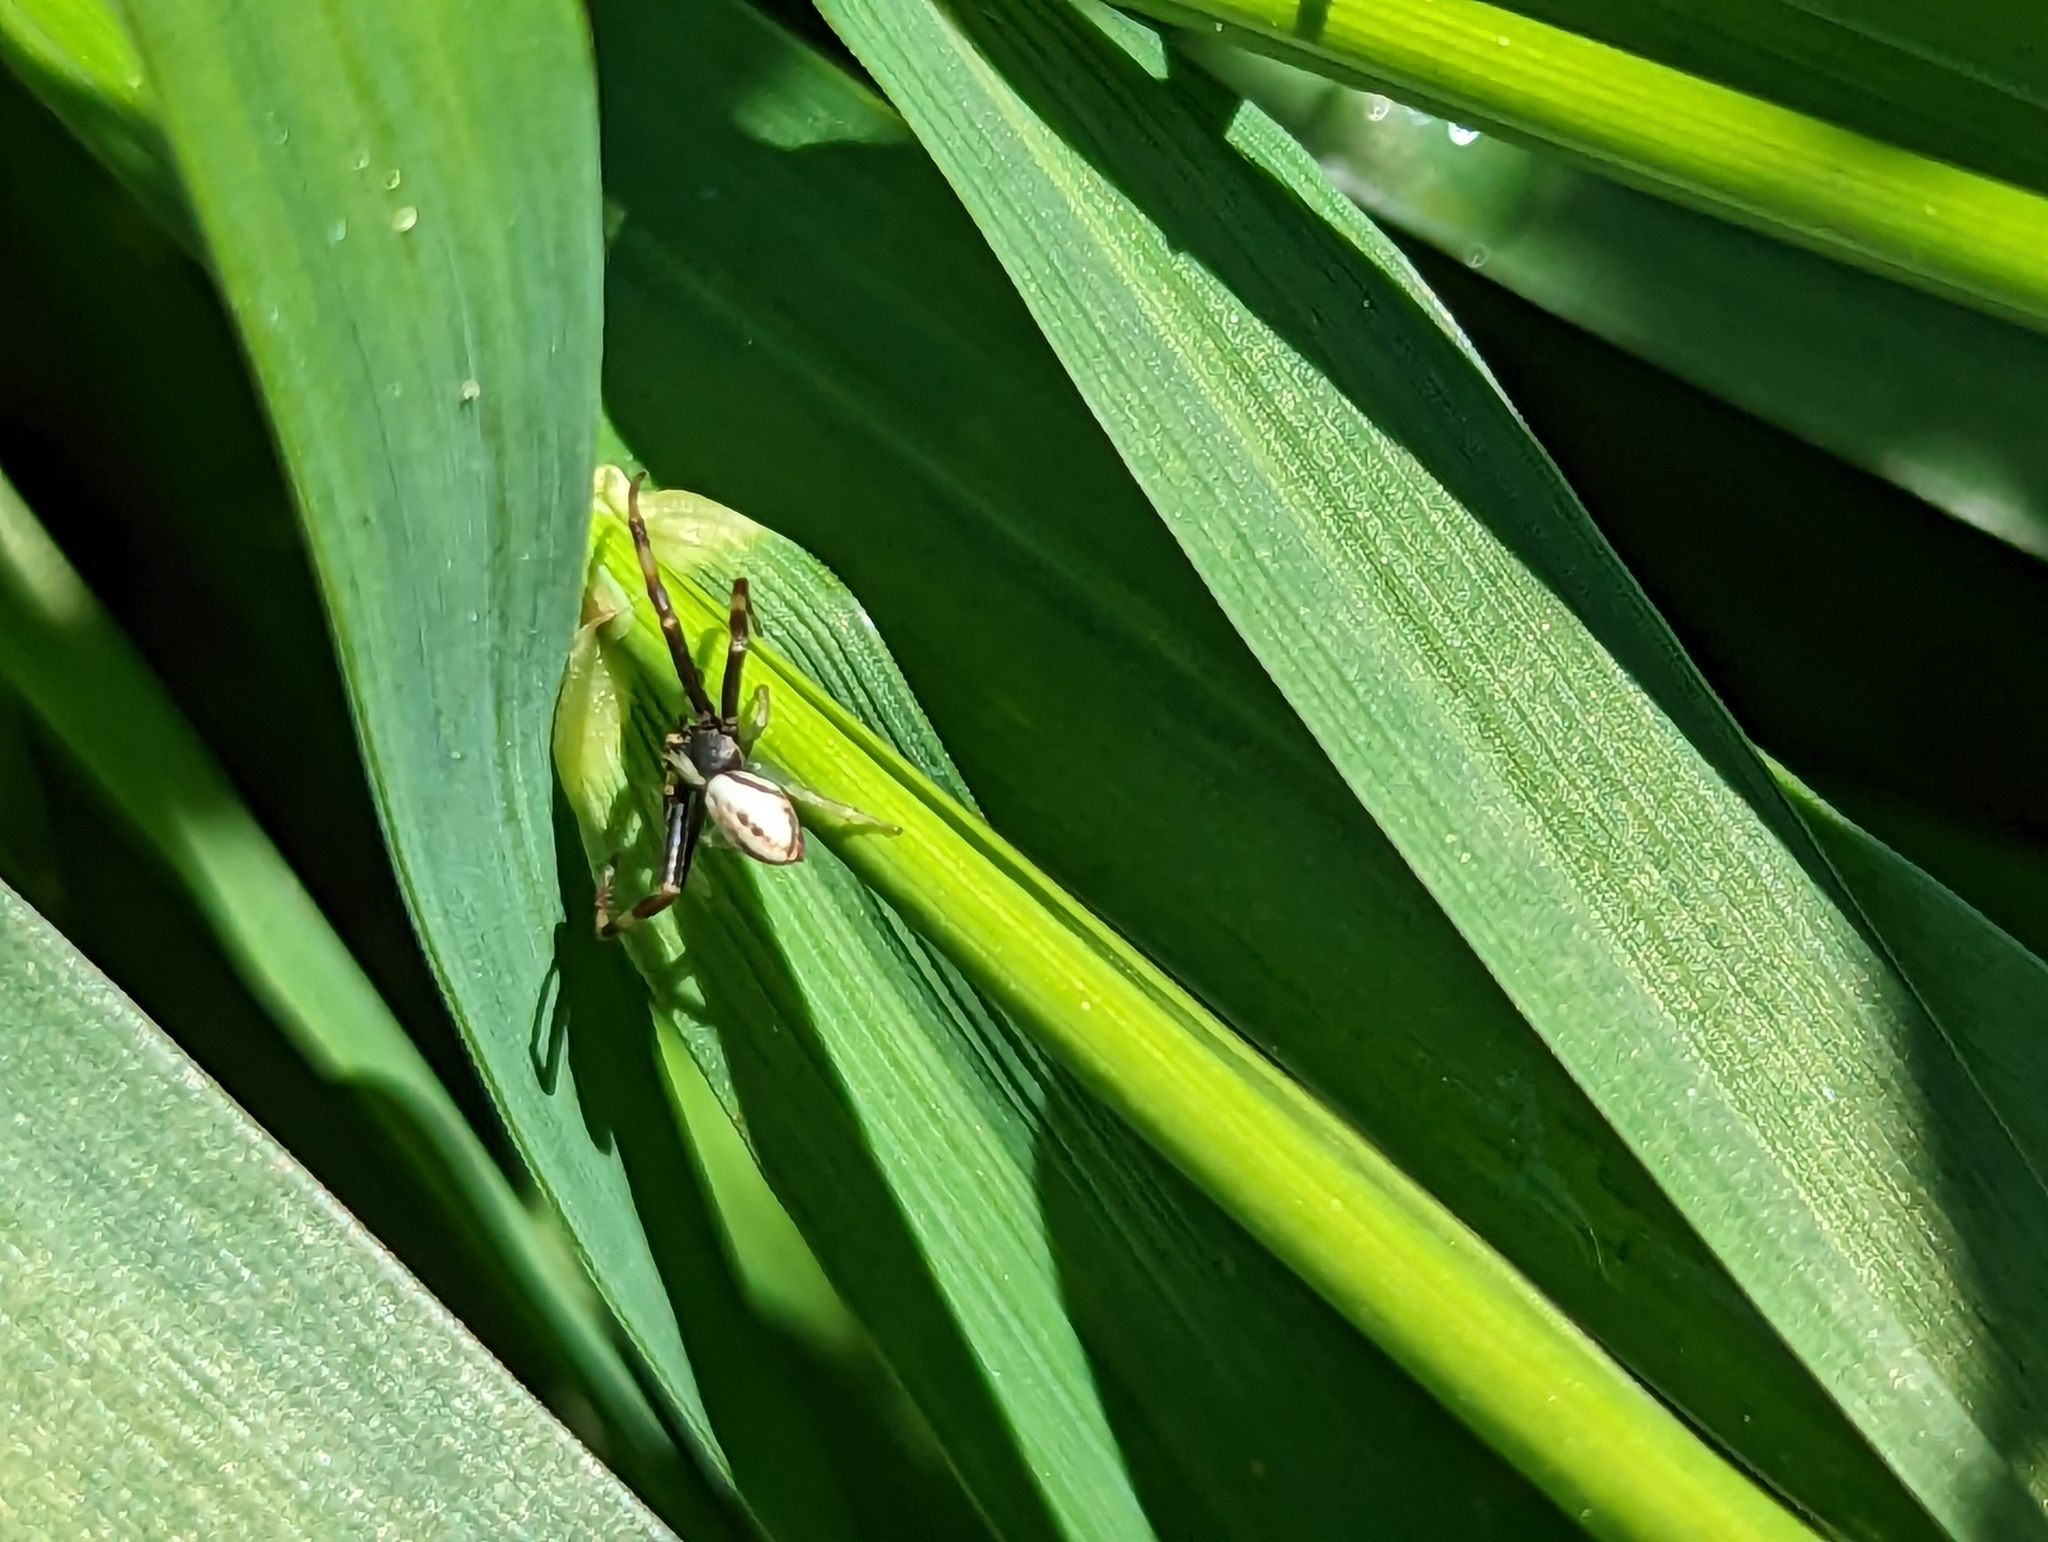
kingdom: Animalia
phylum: Arthropoda
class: Arachnida
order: Araneae
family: Thomisidae
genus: Misumena
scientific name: Misumena vatia
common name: Goldenrod crab spider
